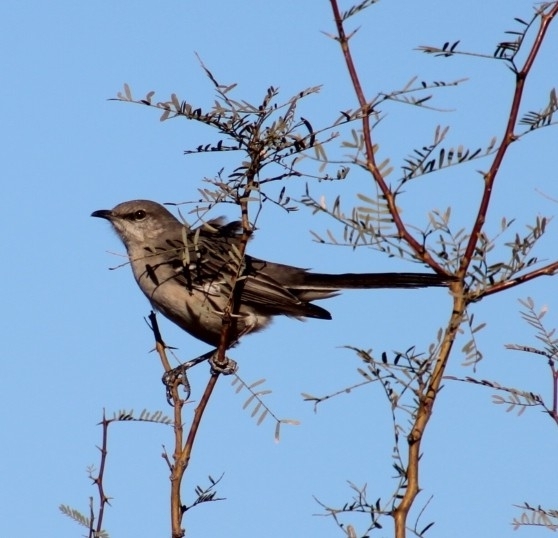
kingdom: Animalia
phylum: Chordata
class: Aves
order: Passeriformes
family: Mimidae
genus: Mimus
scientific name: Mimus polyglottos
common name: Northern mockingbird
